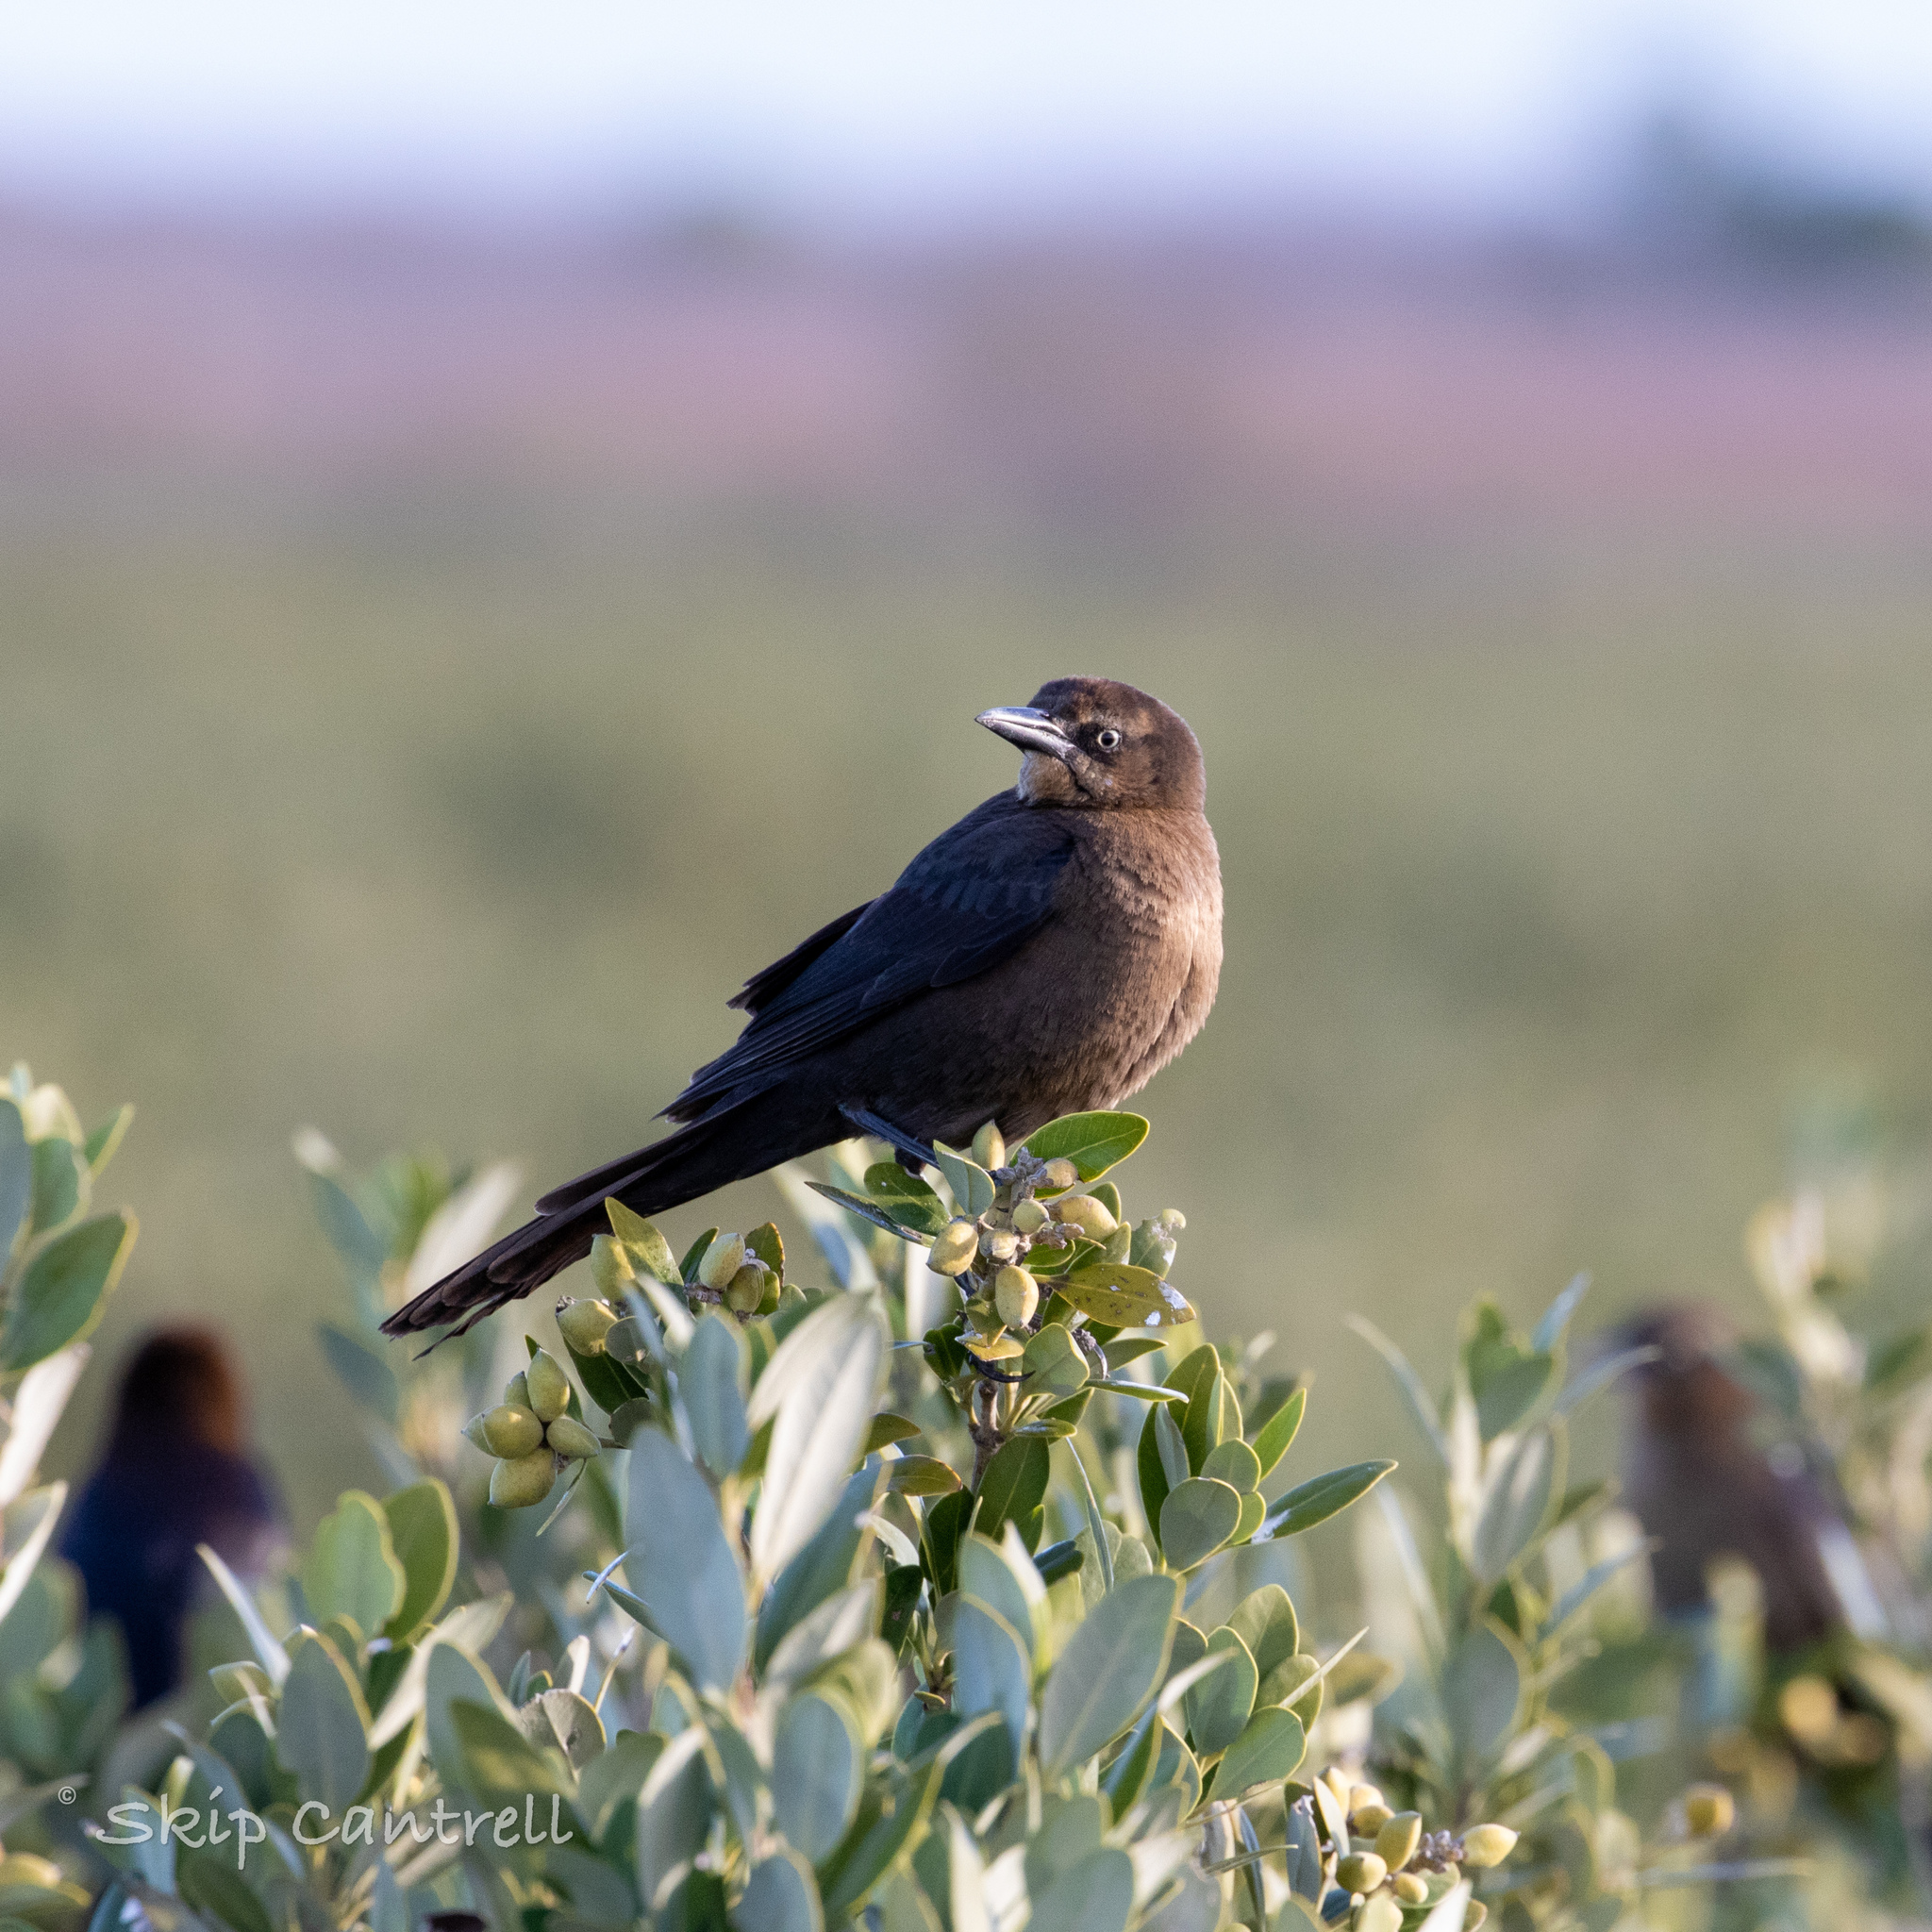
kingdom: Animalia
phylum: Chordata
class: Aves
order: Passeriformes
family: Icteridae
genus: Quiscalus
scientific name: Quiscalus mexicanus
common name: Great-tailed grackle
